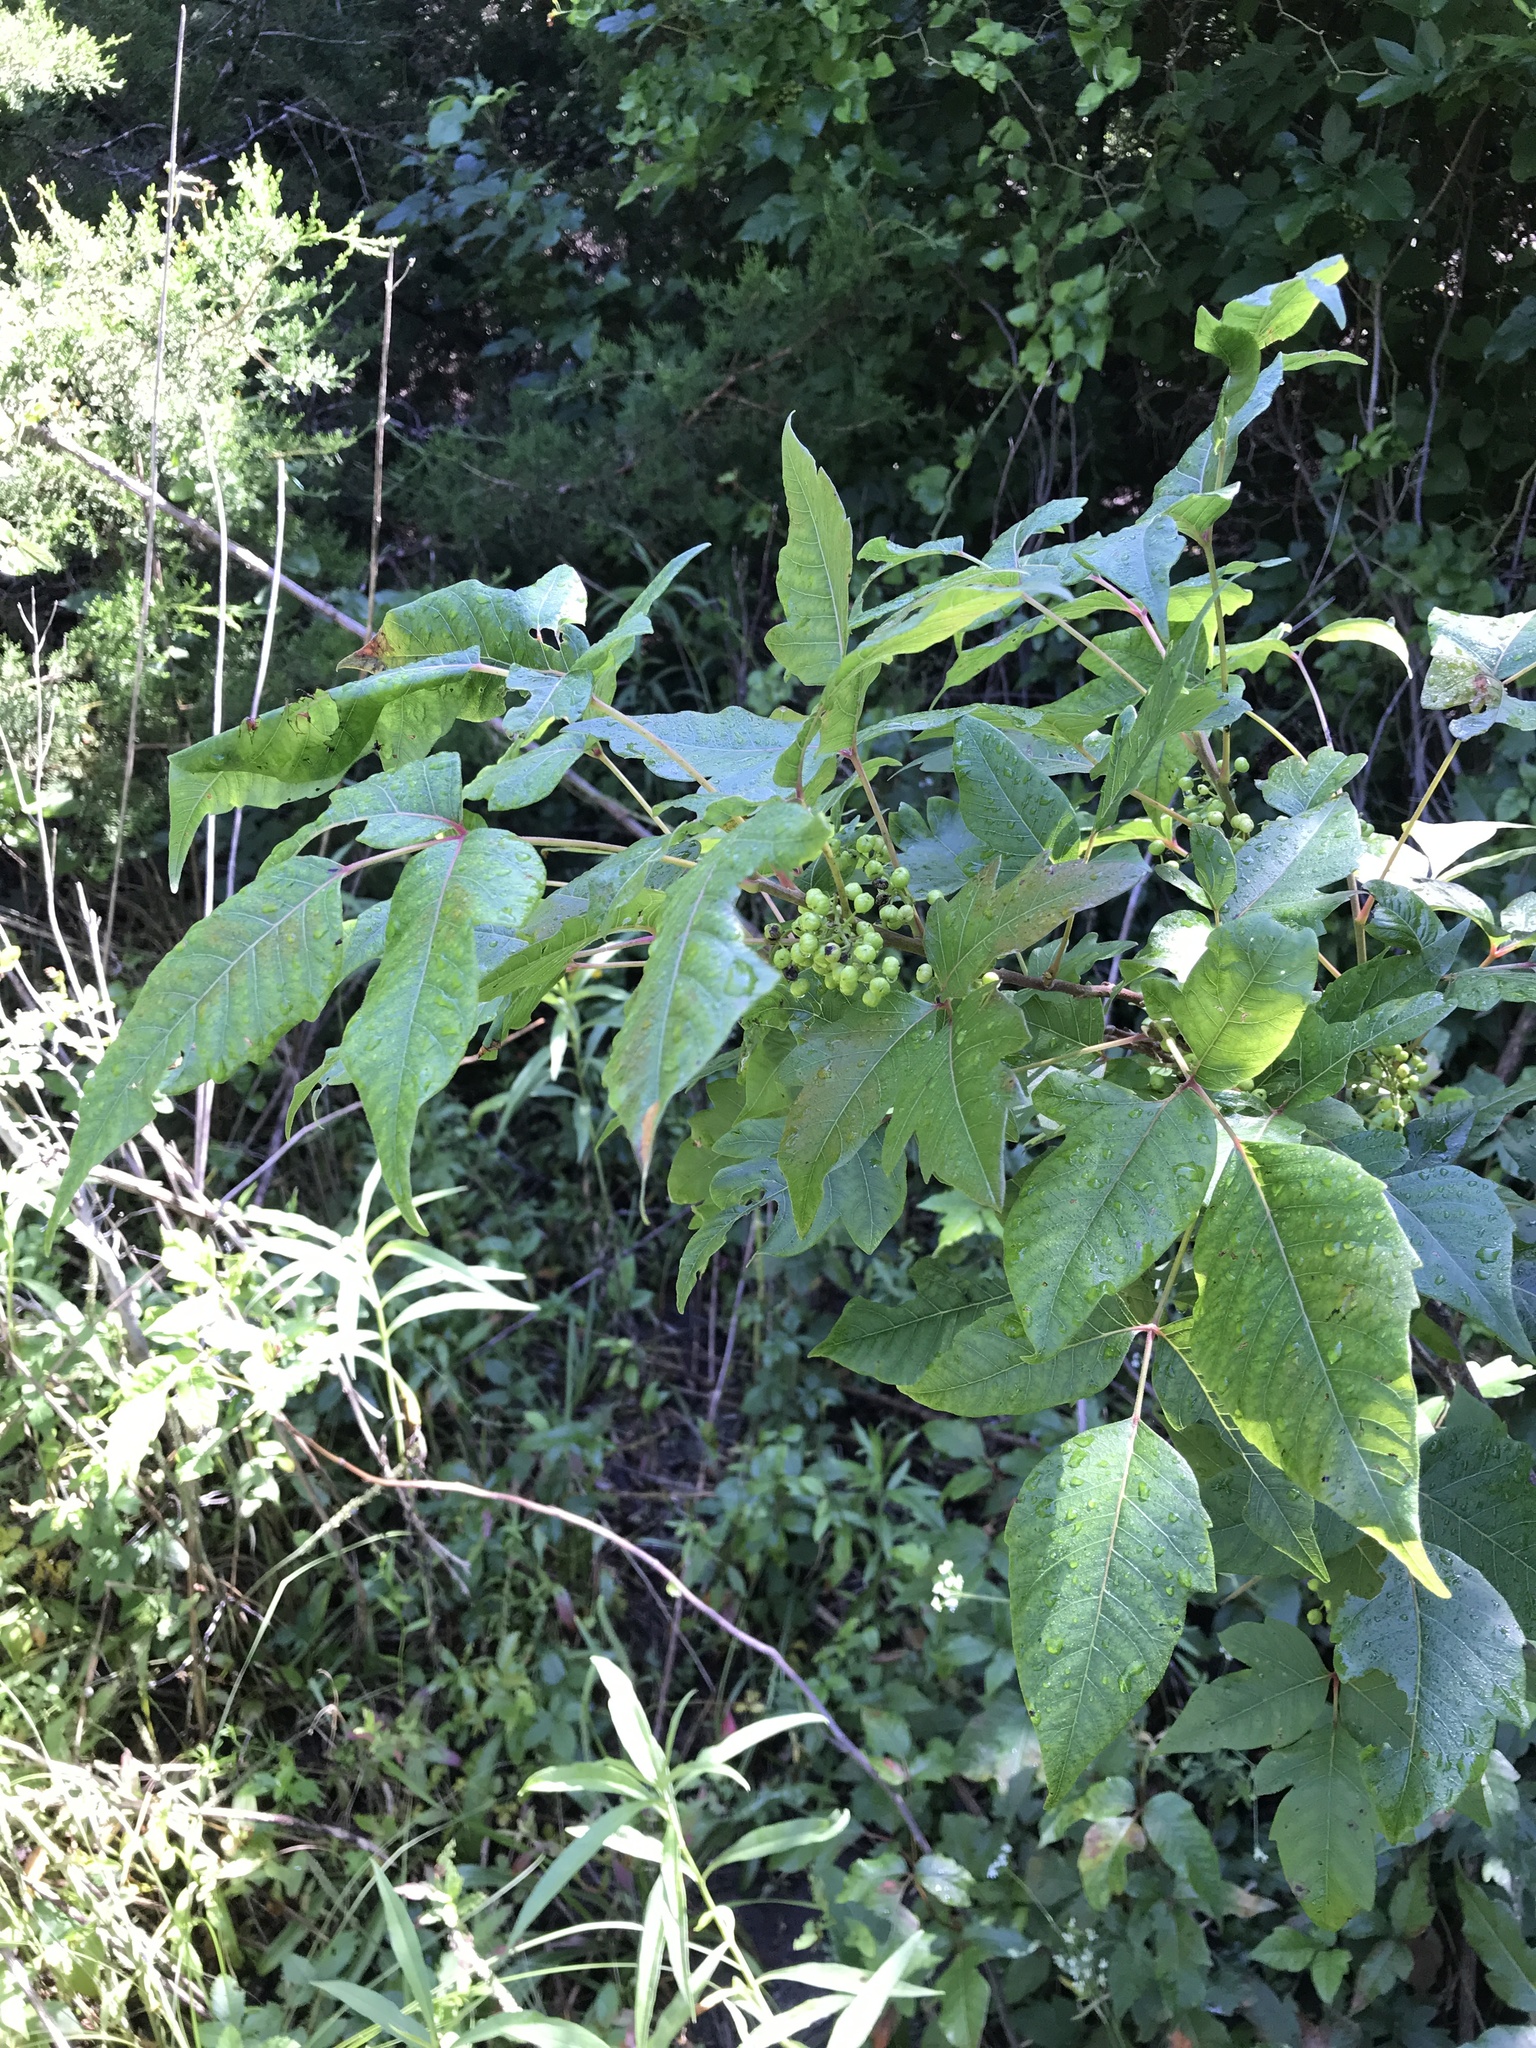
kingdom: Plantae
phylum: Tracheophyta
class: Magnoliopsida
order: Sapindales
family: Anacardiaceae
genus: Toxicodendron
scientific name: Toxicodendron radicans
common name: Poison ivy
